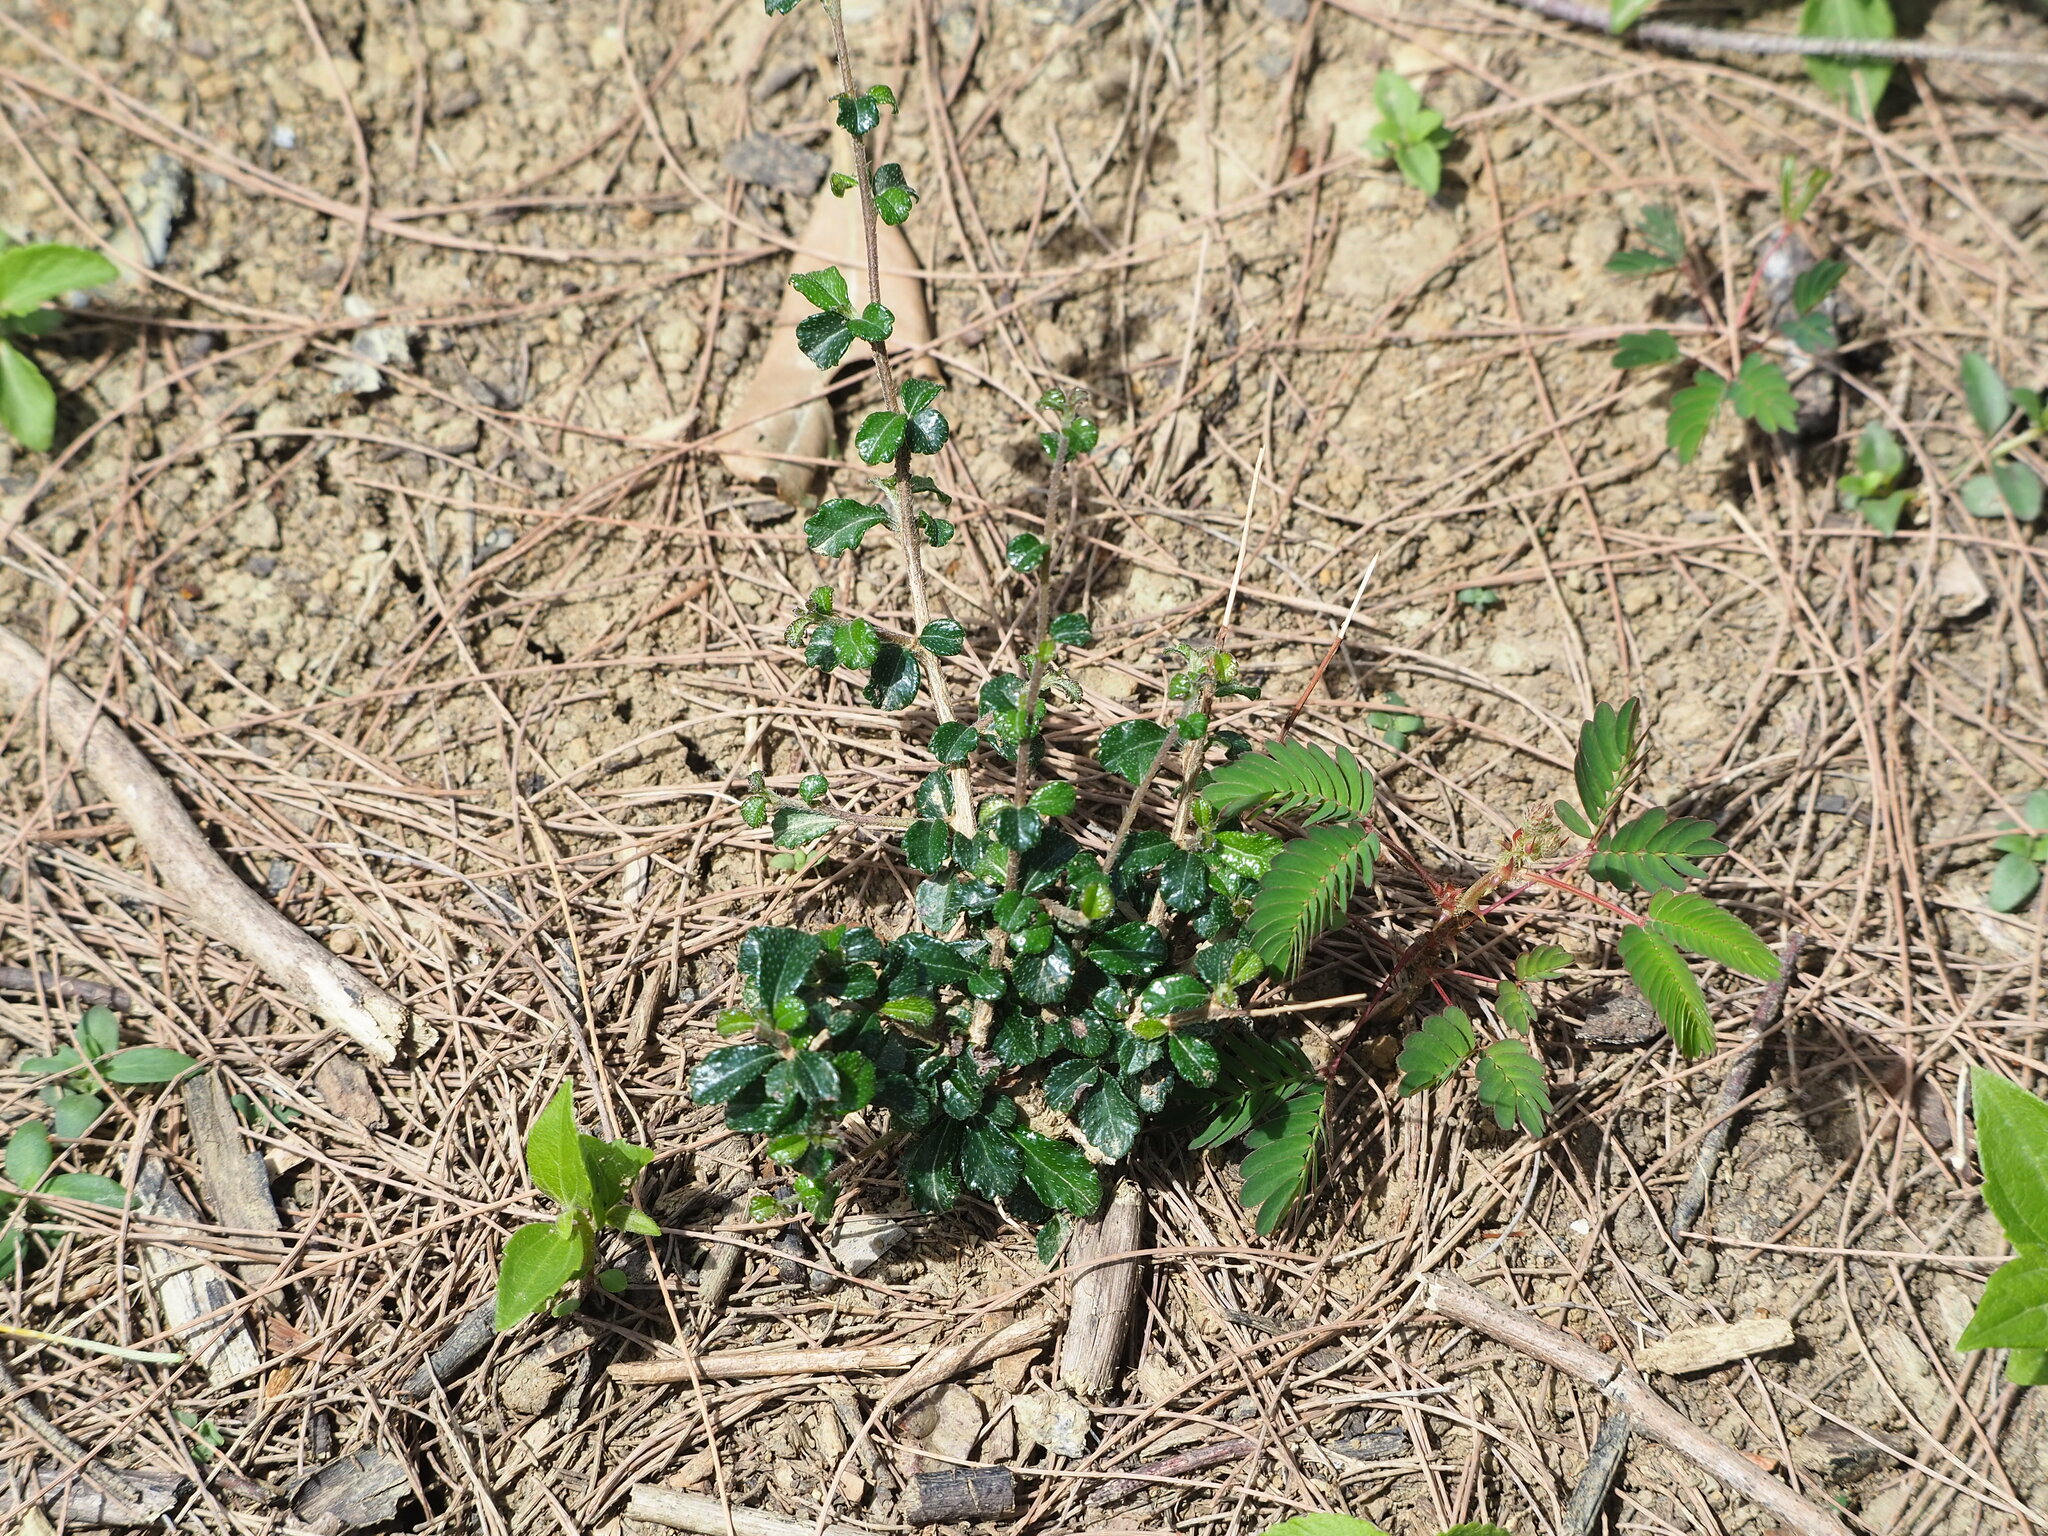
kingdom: Plantae
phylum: Tracheophyta
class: Magnoliopsida
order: Malvales
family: Malvaceae
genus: Corchorus
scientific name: Corchorus aestuans
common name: Jute
